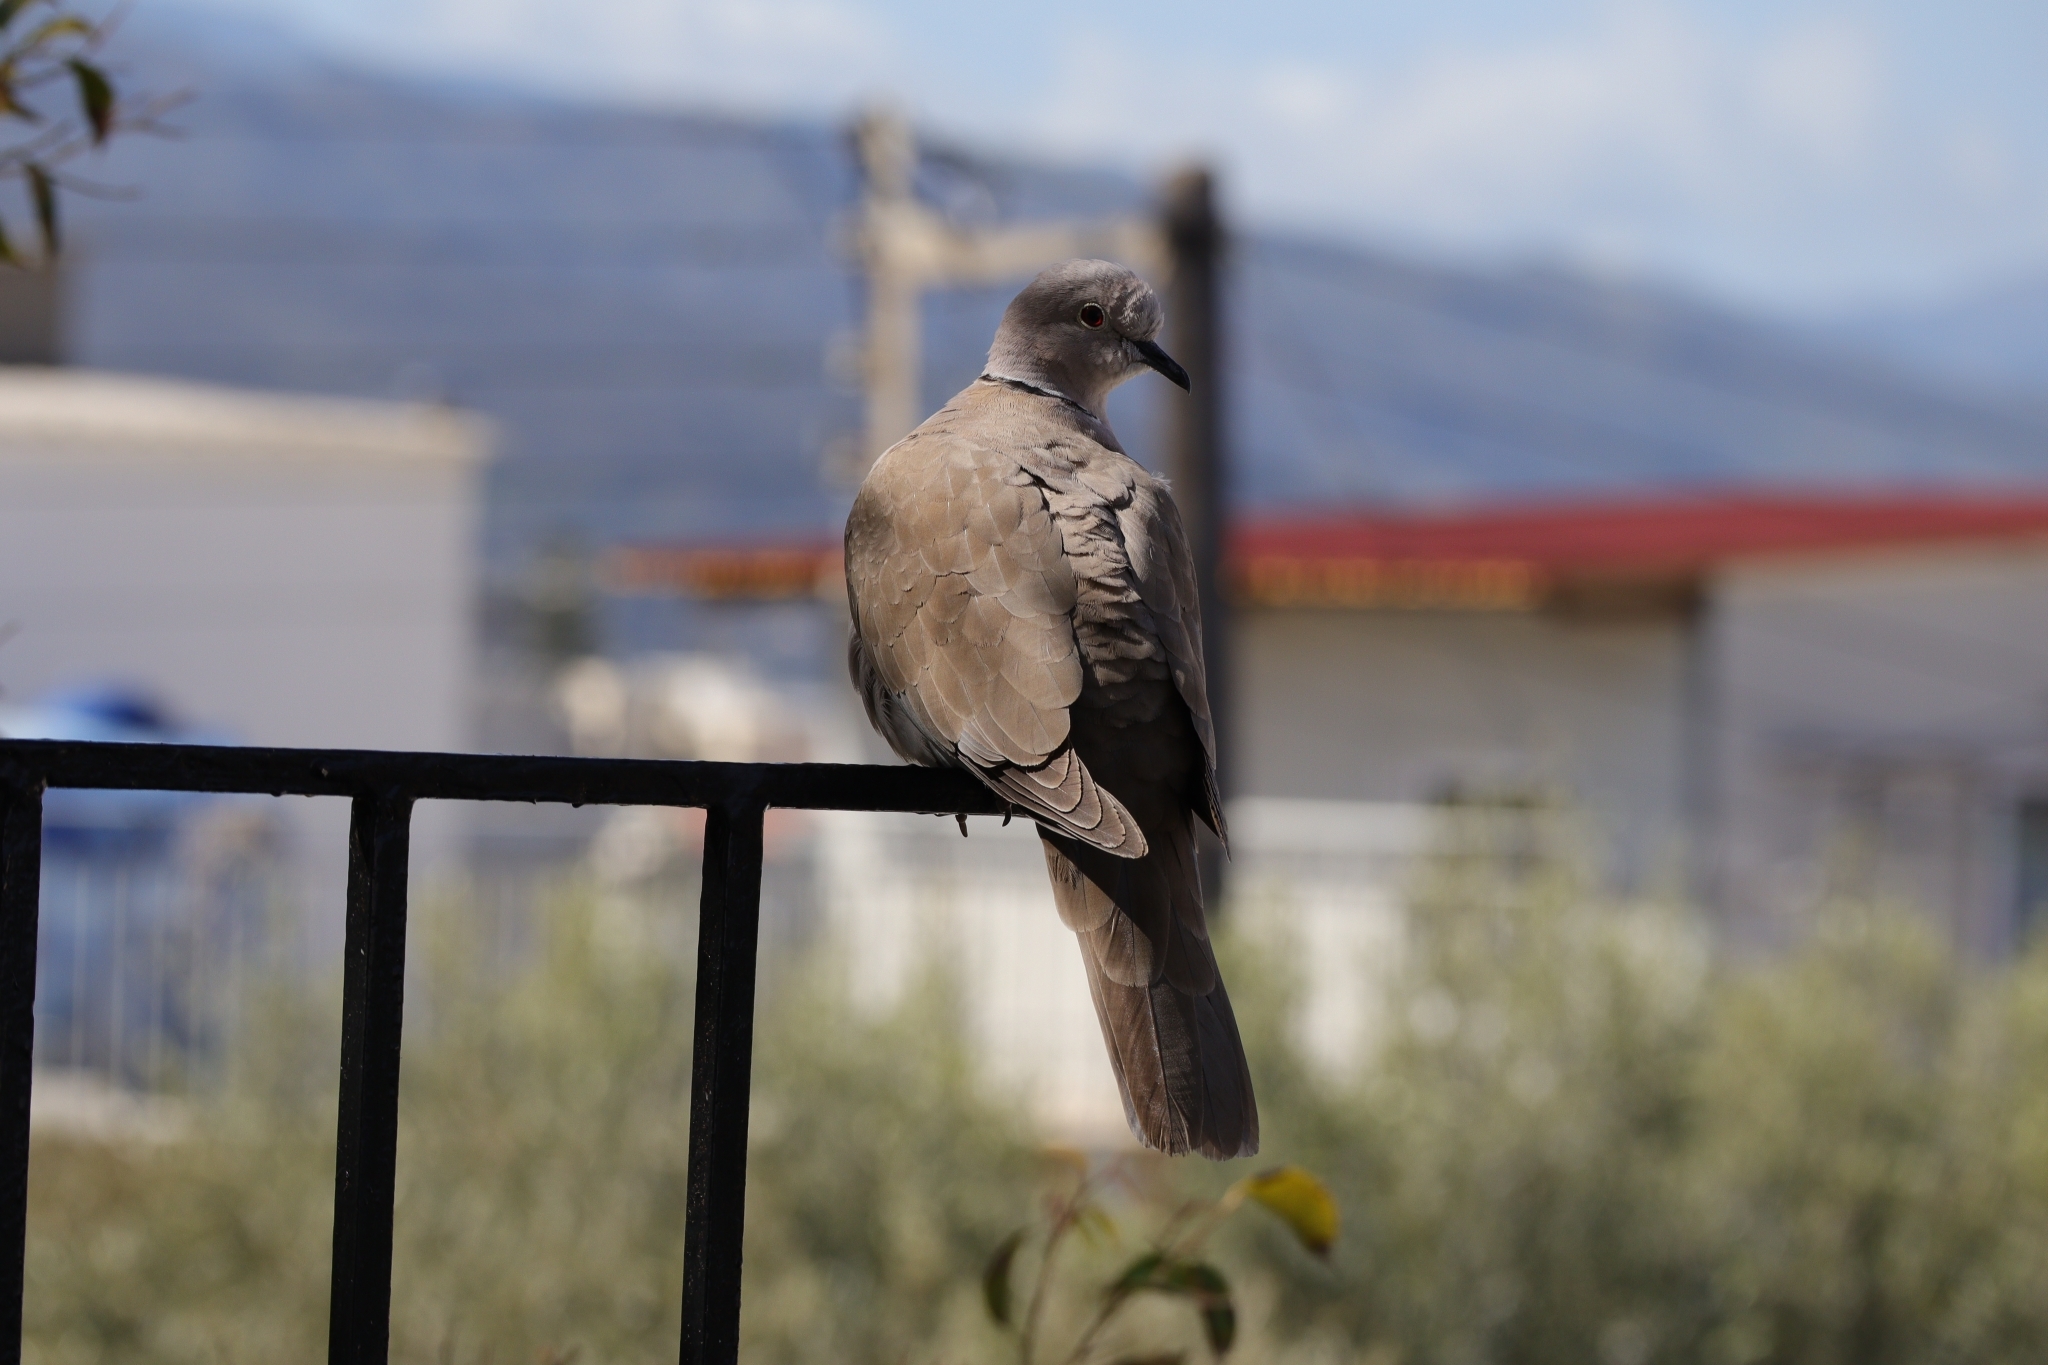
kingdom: Animalia
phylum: Chordata
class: Aves
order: Columbiformes
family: Columbidae
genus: Streptopelia
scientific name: Streptopelia decaocto
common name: Eurasian collared dove
